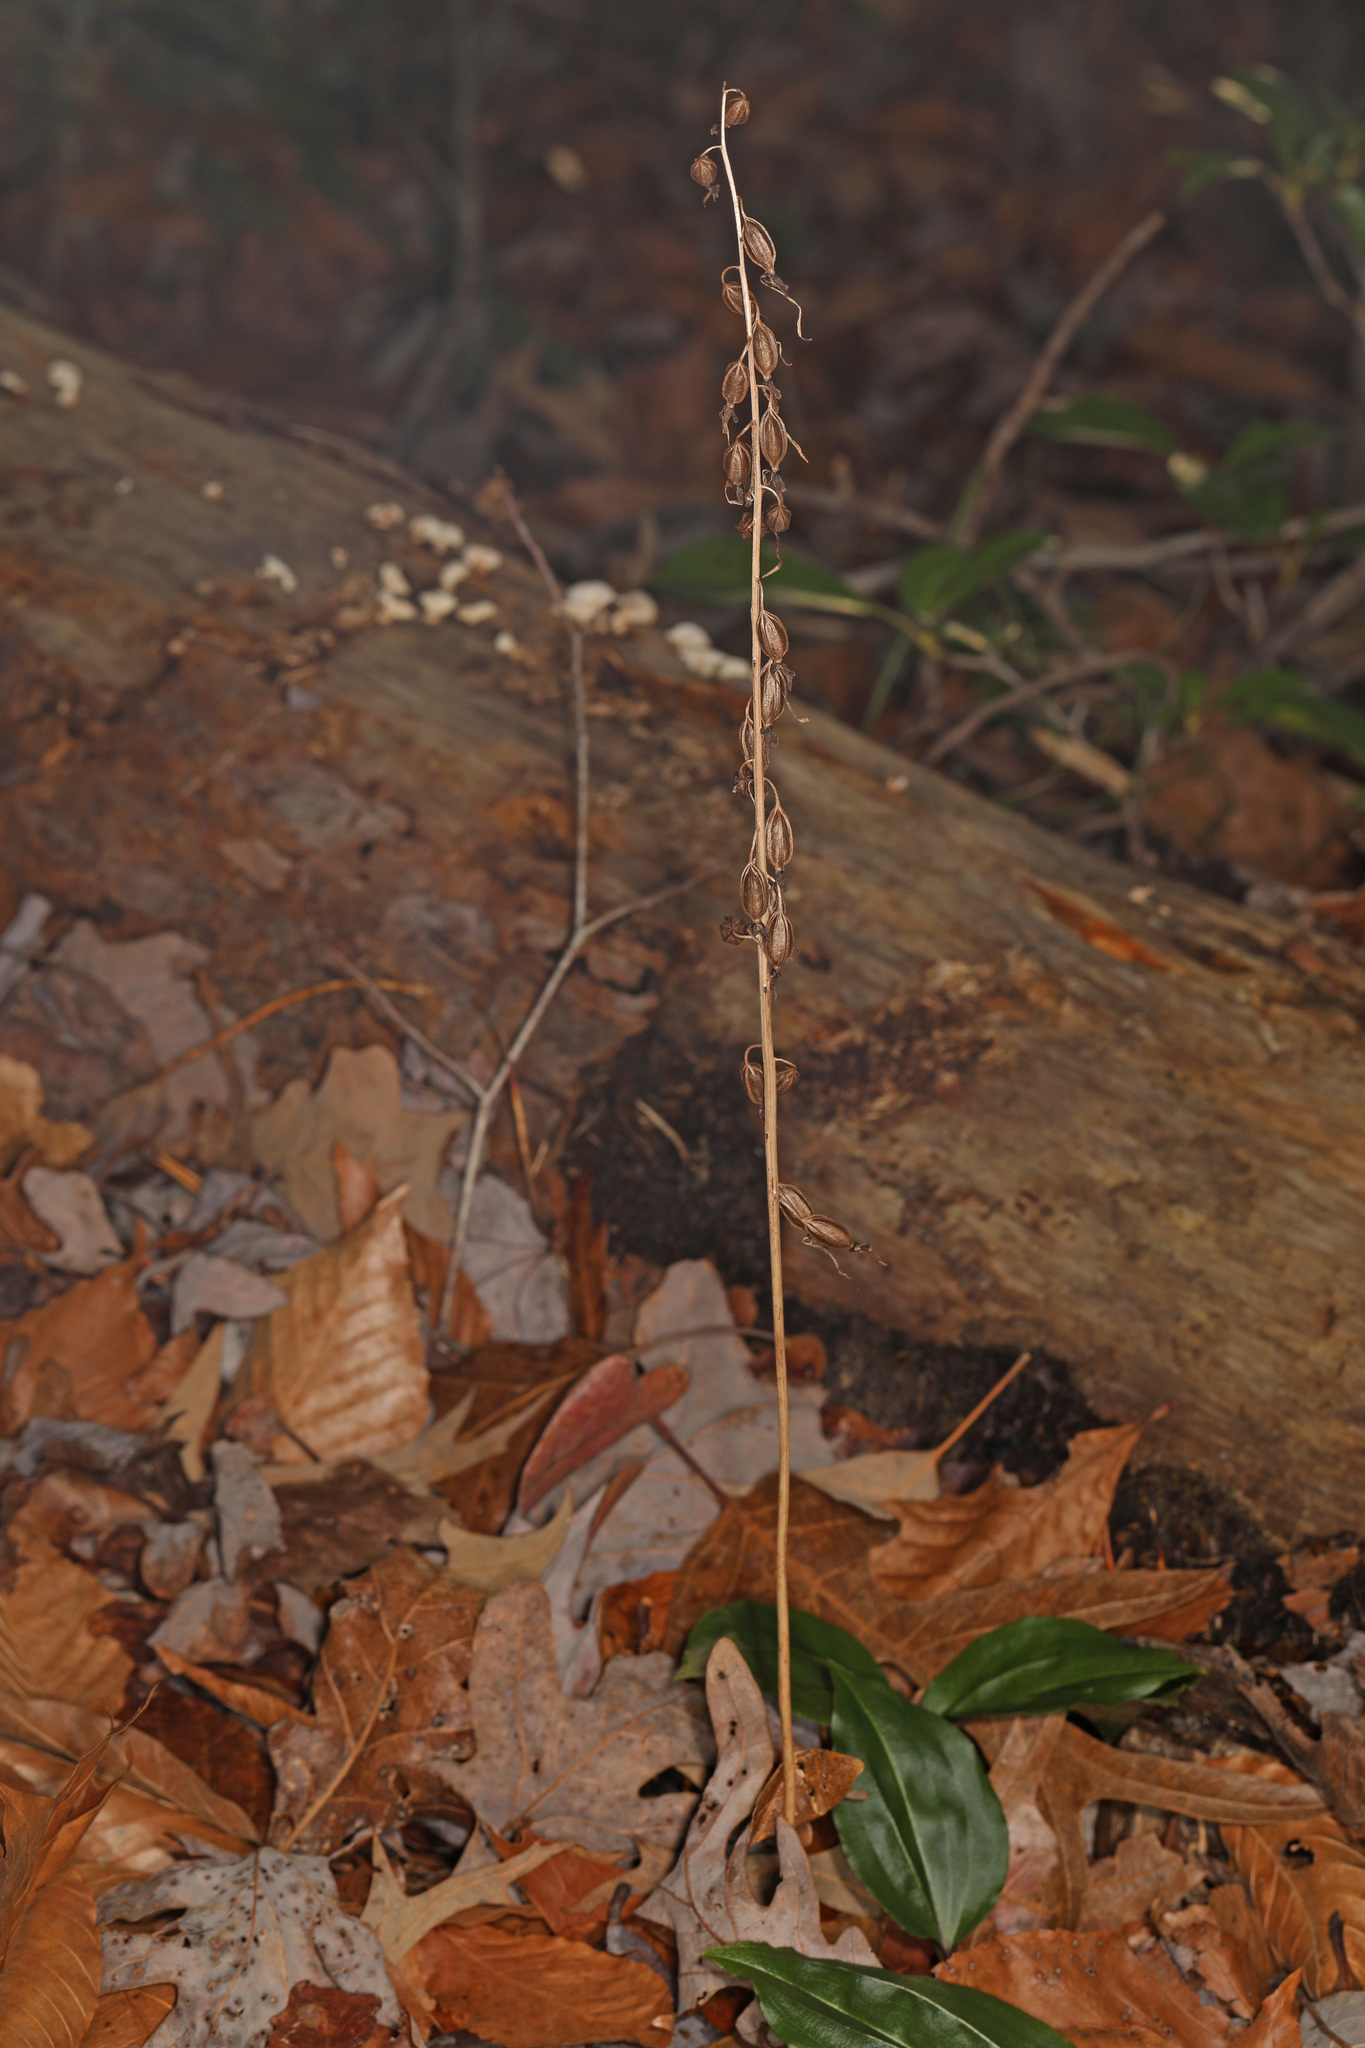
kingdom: Plantae
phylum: Tracheophyta
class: Liliopsida
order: Asparagales
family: Orchidaceae
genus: Tipularia
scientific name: Tipularia discolor
